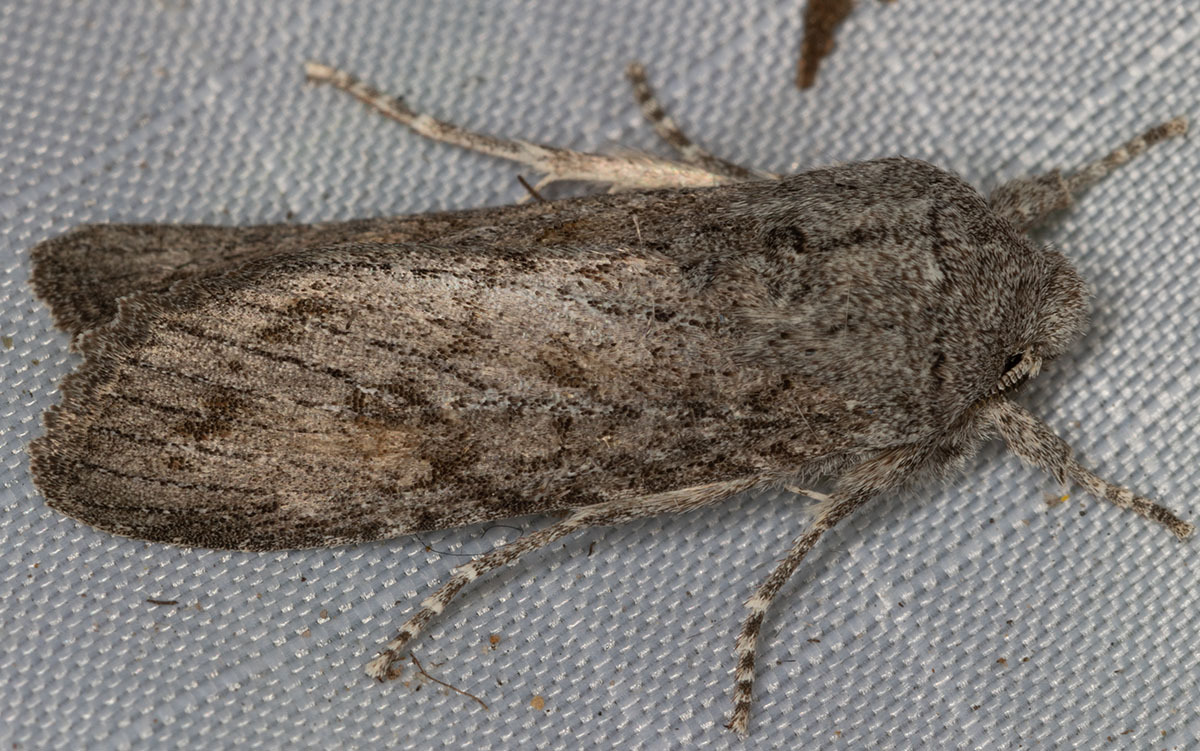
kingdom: Animalia
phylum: Arthropoda
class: Insecta
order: Lepidoptera
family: Noctuidae
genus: Egira
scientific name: Egira curialis
